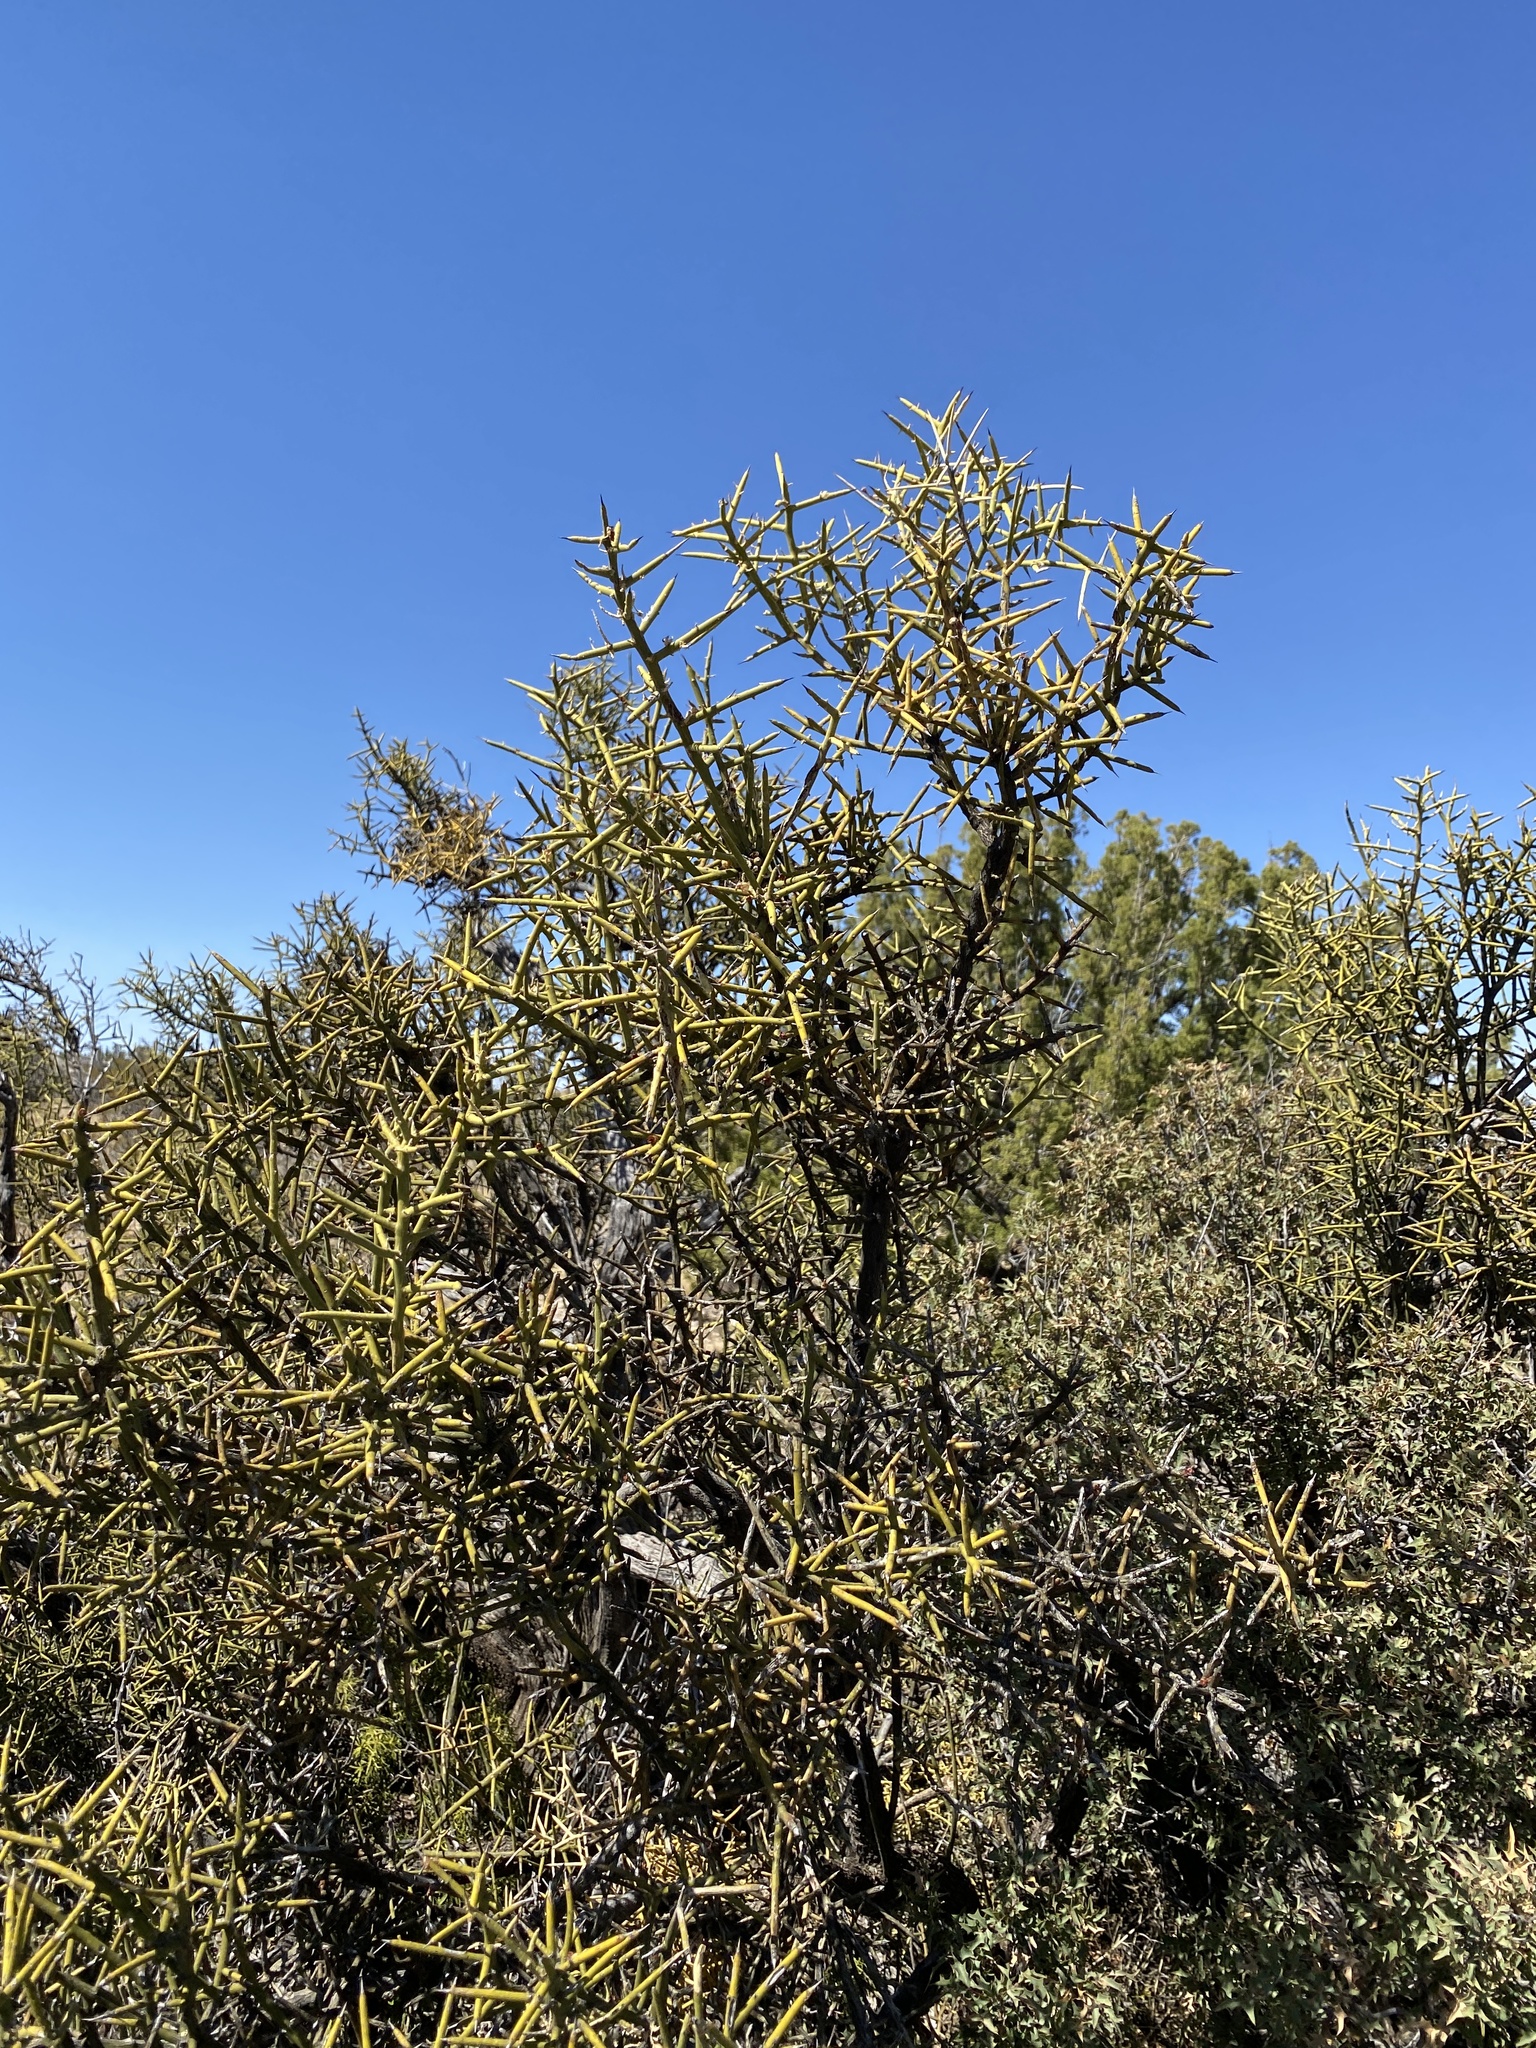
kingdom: Plantae
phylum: Tracheophyta
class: Magnoliopsida
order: Brassicales
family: Koeberliniaceae
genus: Koeberlinia
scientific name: Koeberlinia spinosa
